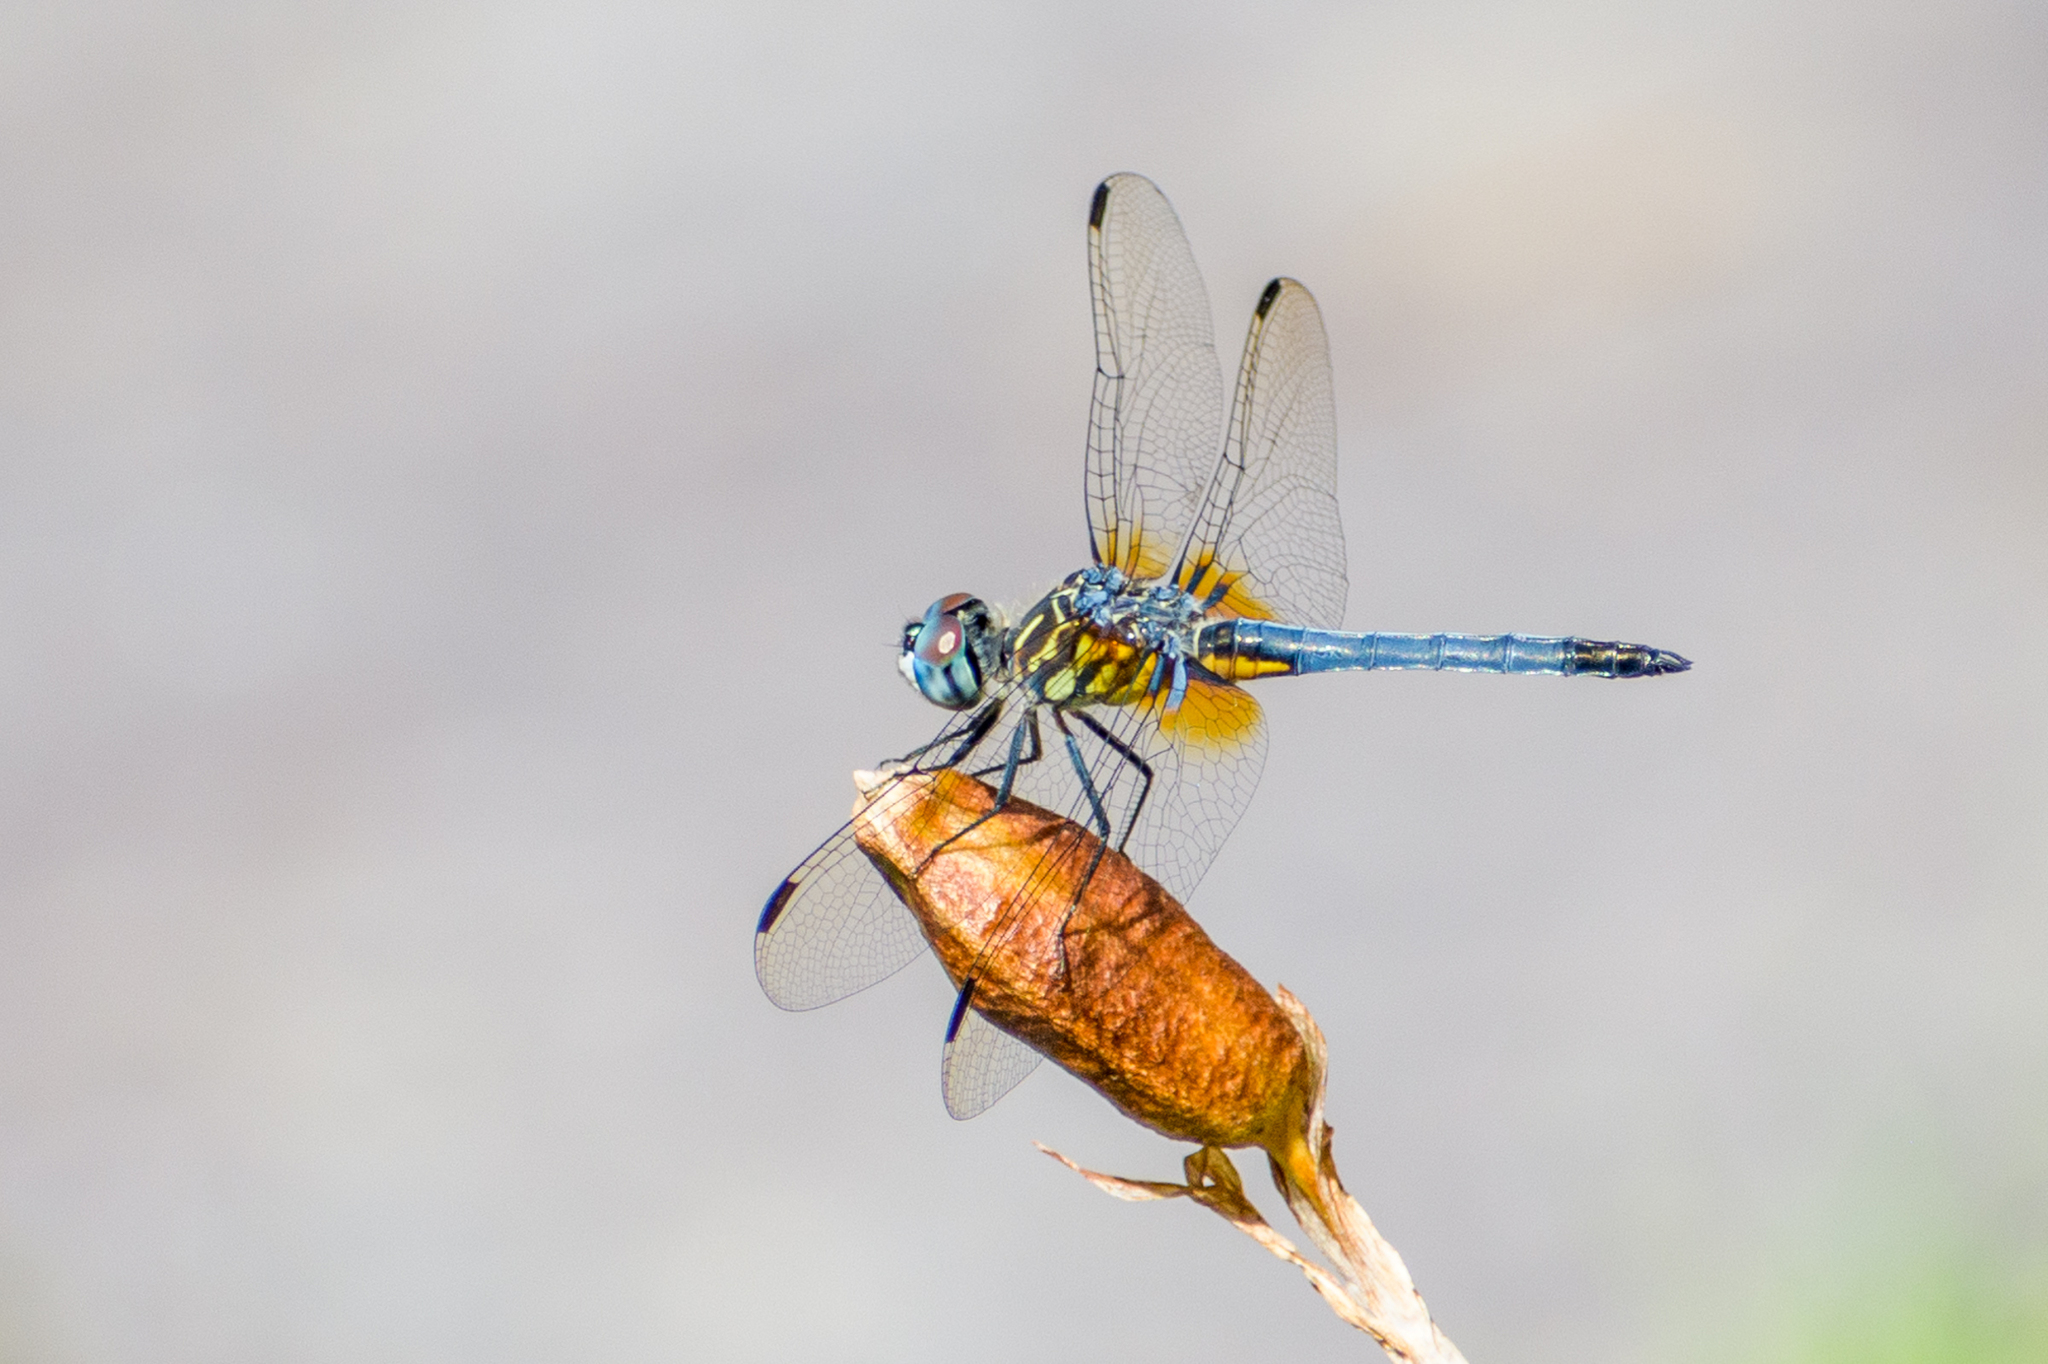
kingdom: Animalia
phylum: Arthropoda
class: Insecta
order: Odonata
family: Libellulidae
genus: Pachydiplax
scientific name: Pachydiplax longipennis
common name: Blue dasher
